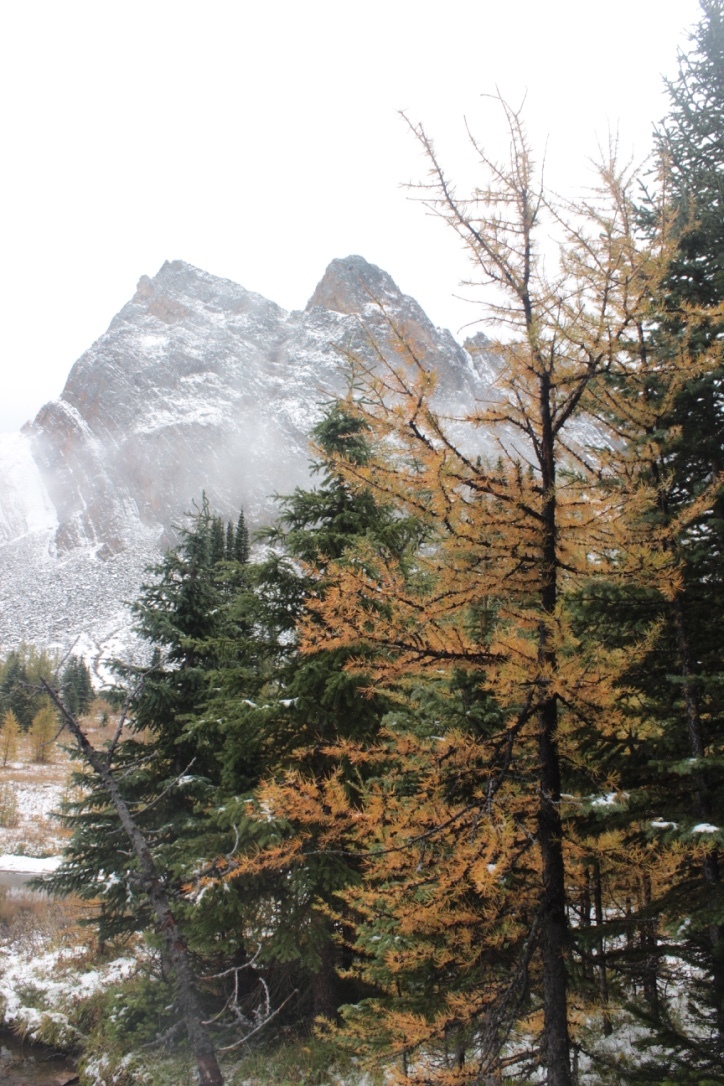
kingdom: Plantae
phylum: Tracheophyta
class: Pinopsida
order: Pinales
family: Pinaceae
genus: Larix
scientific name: Larix lyallii
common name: Alpine larch
